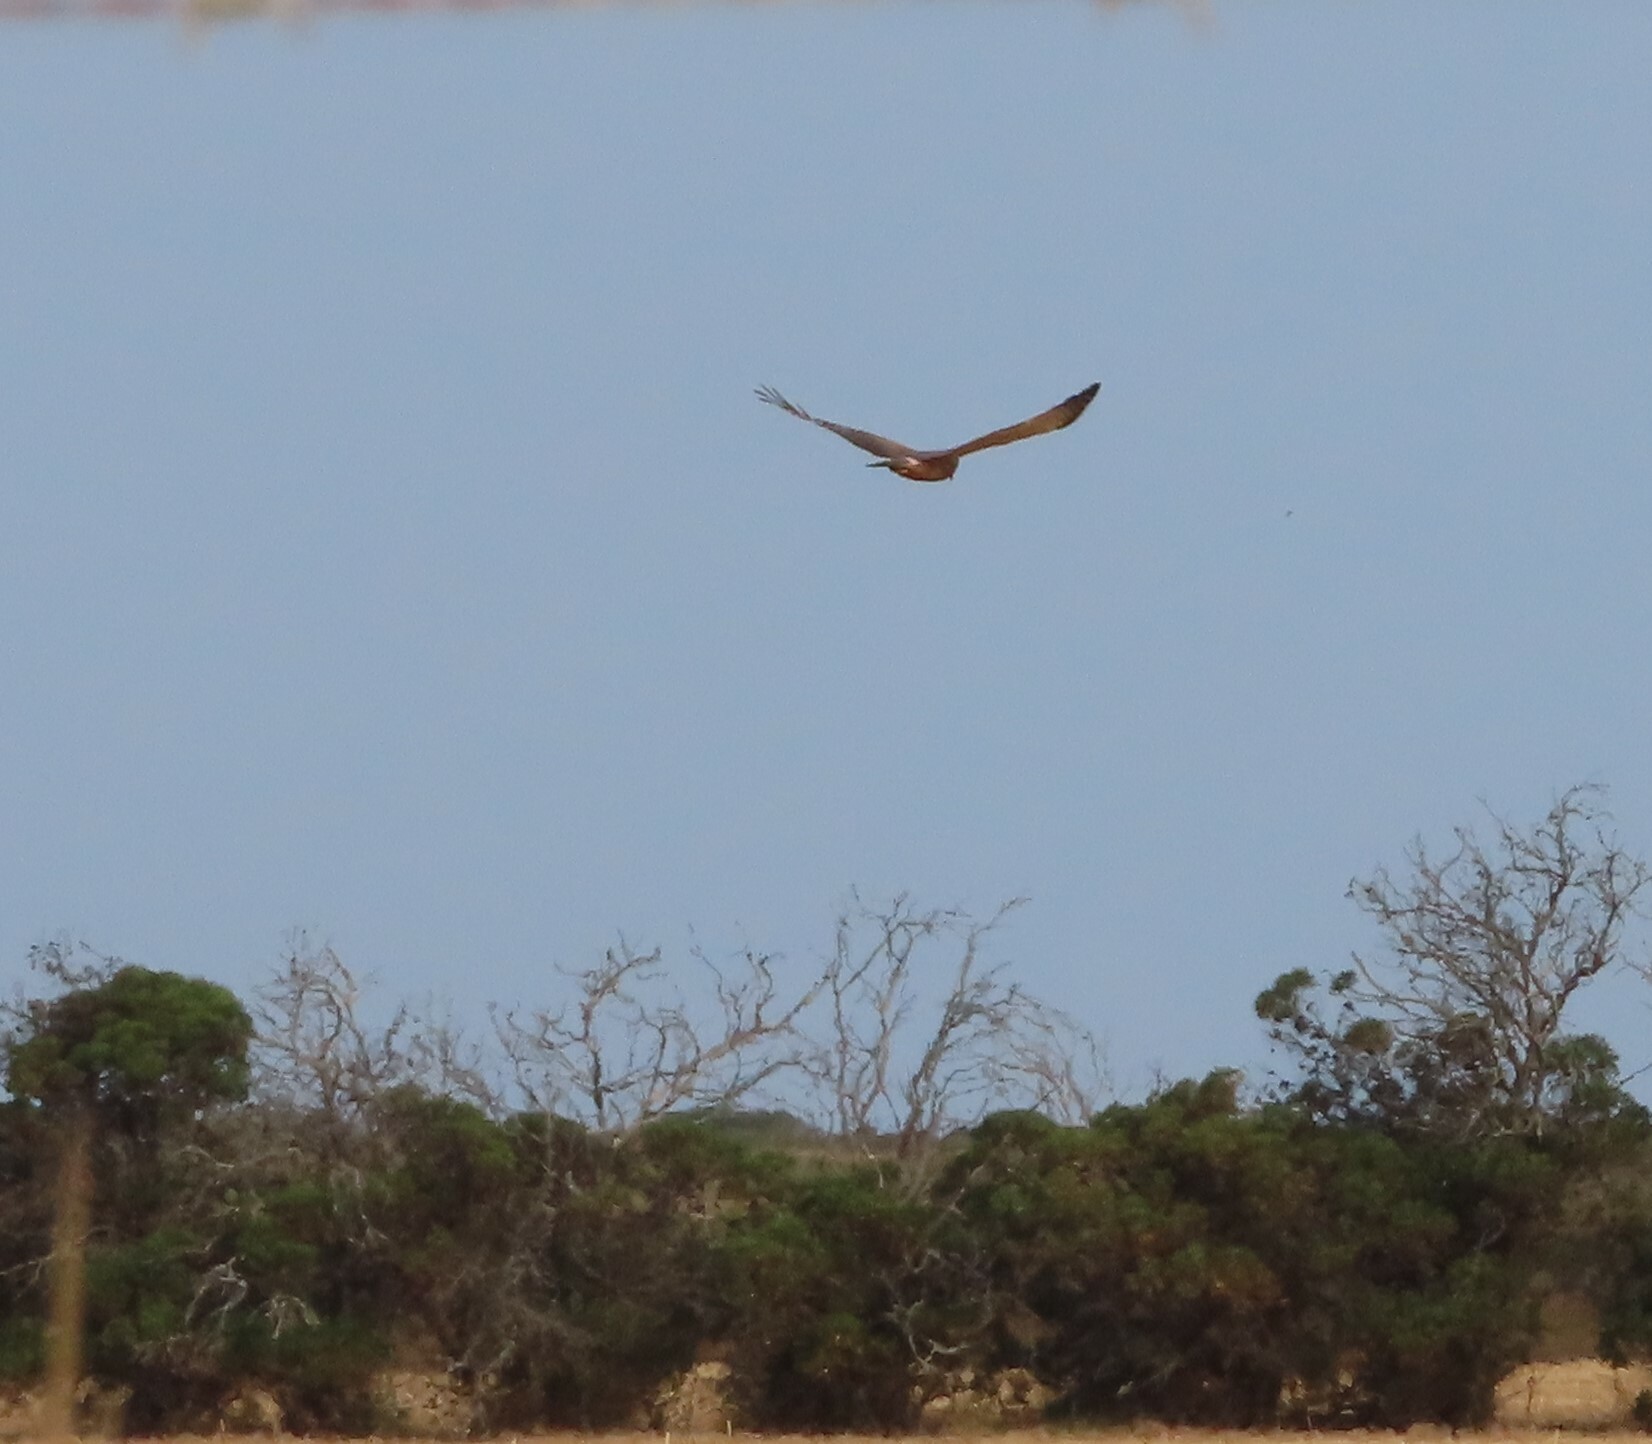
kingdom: Animalia
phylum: Chordata
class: Aves
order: Accipitriformes
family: Accipitridae
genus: Buteo
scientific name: Buteo rufofuscus
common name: Jackal buzzard
